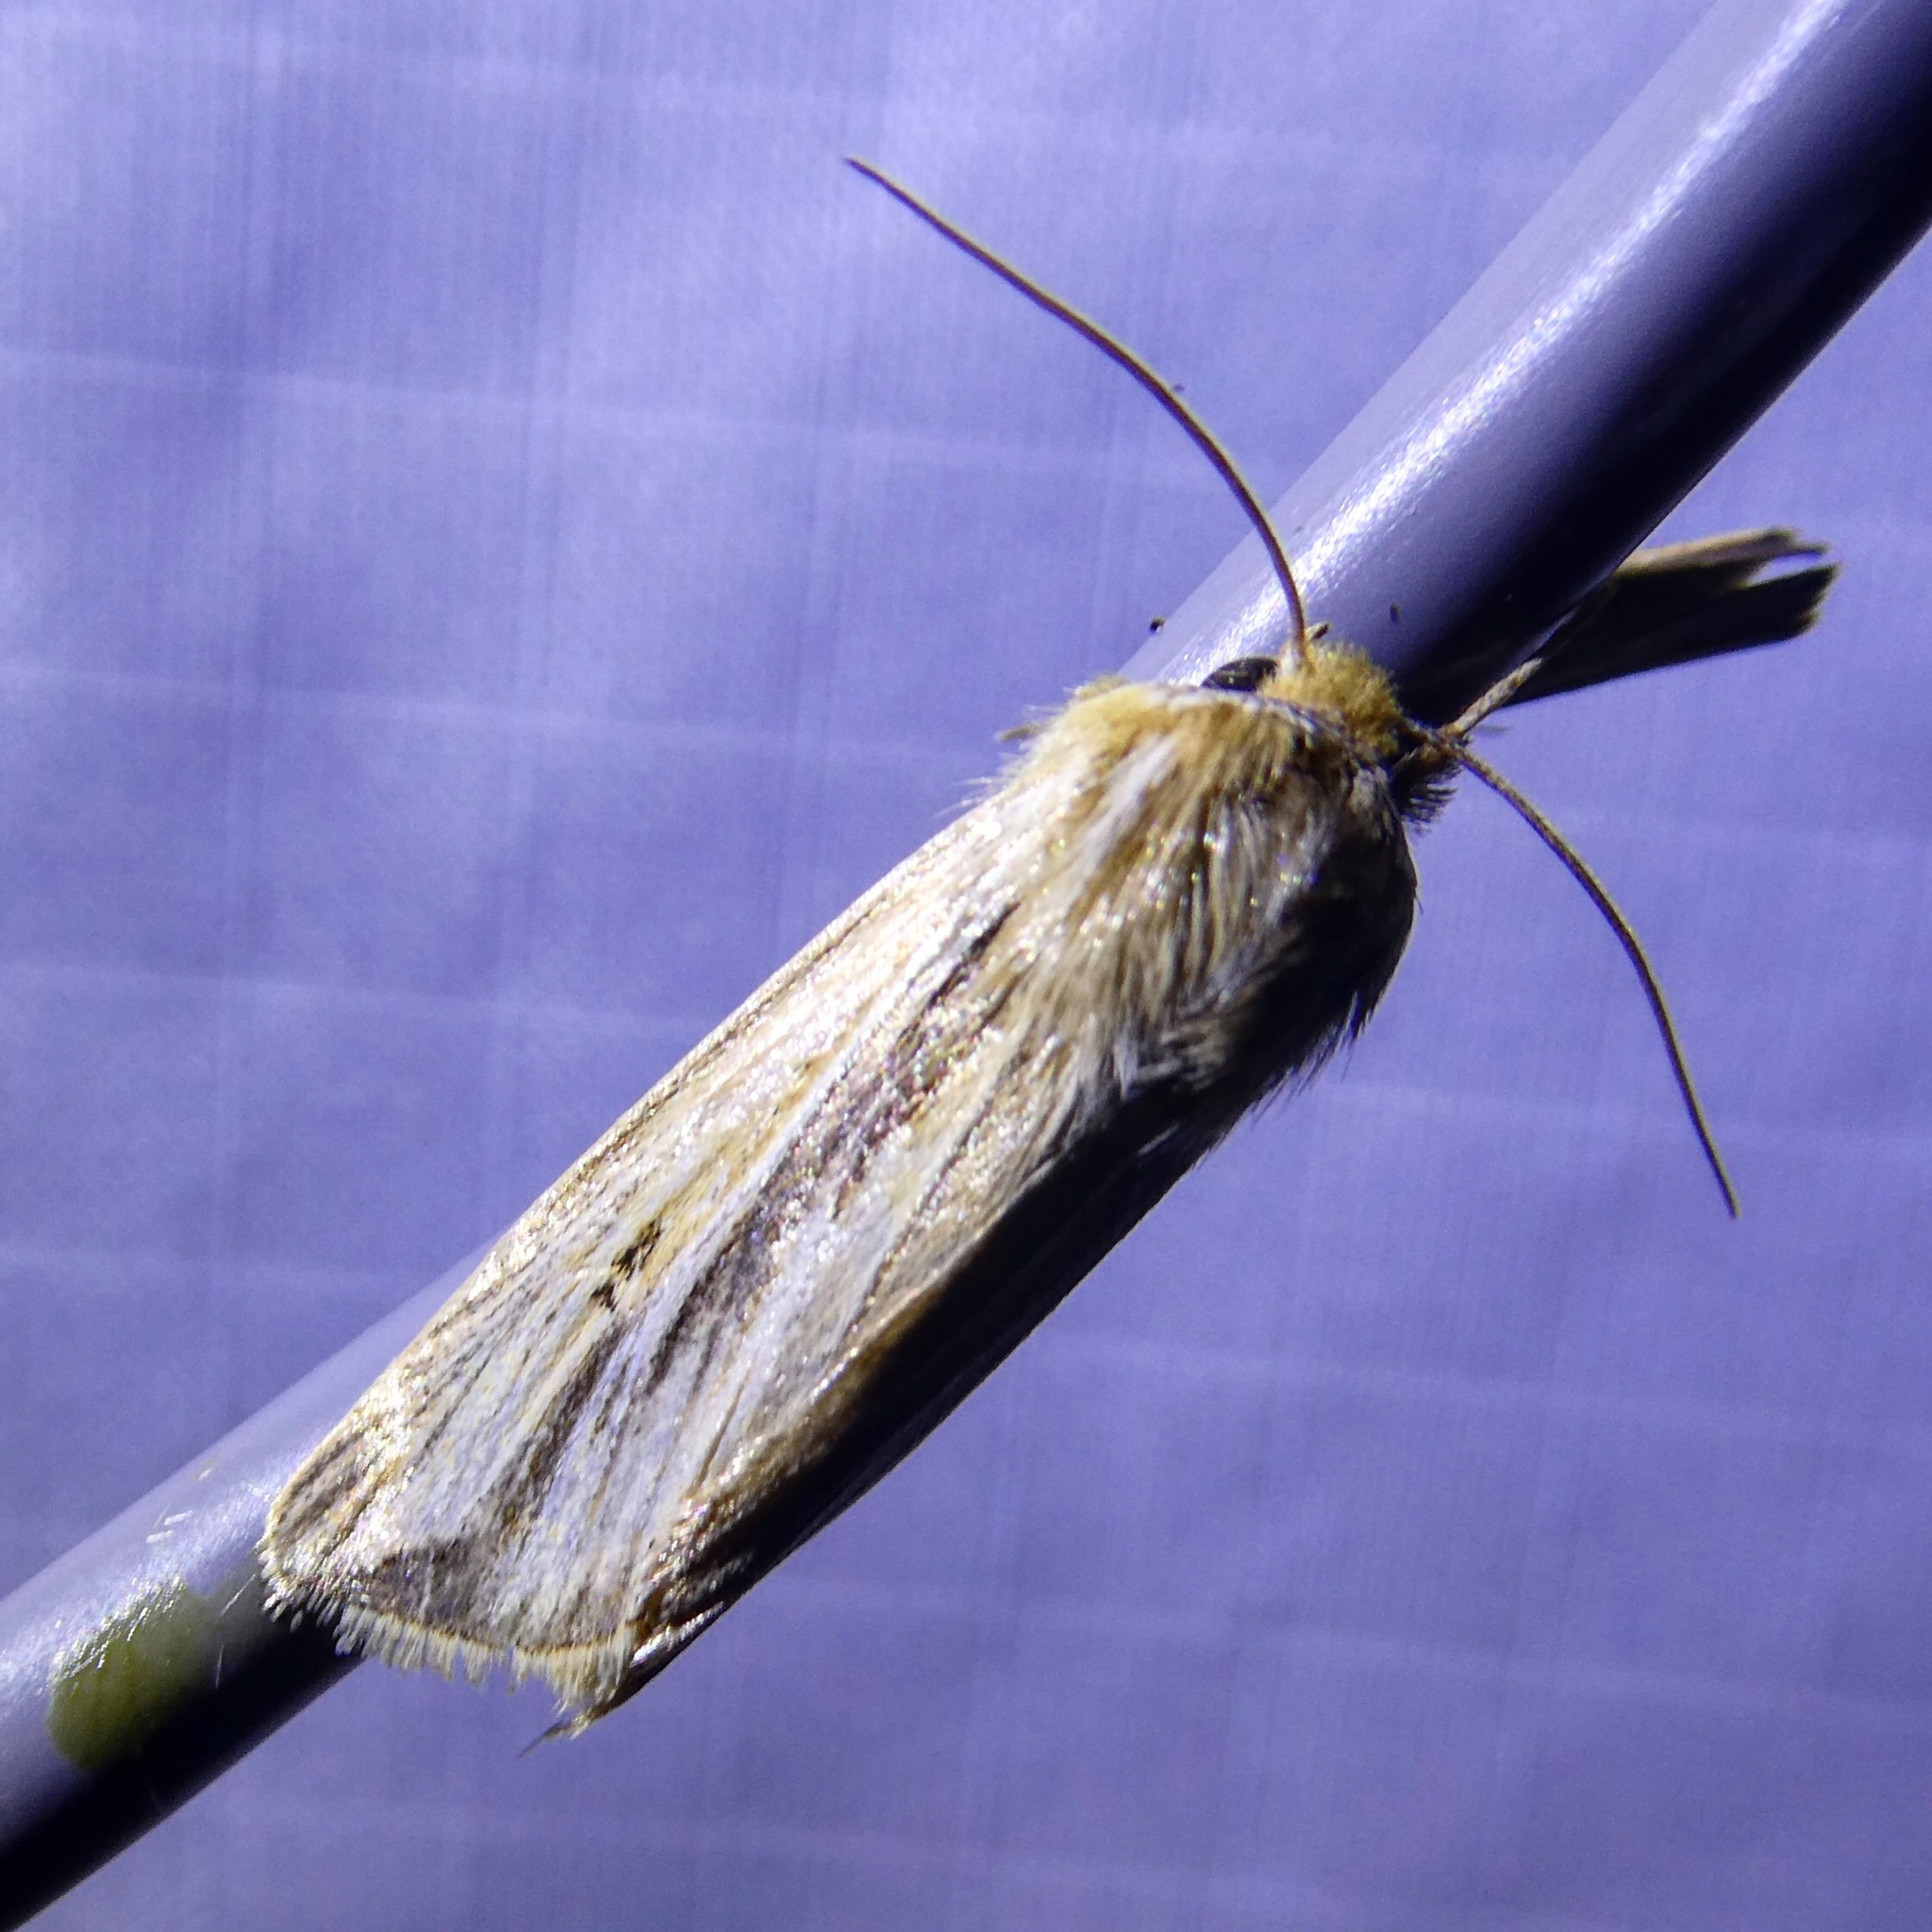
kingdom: Animalia
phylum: Arthropoda
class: Insecta
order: Lepidoptera
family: Noctuidae
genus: Dargida
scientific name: Dargida diffusa
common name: Wheat head armyworm
